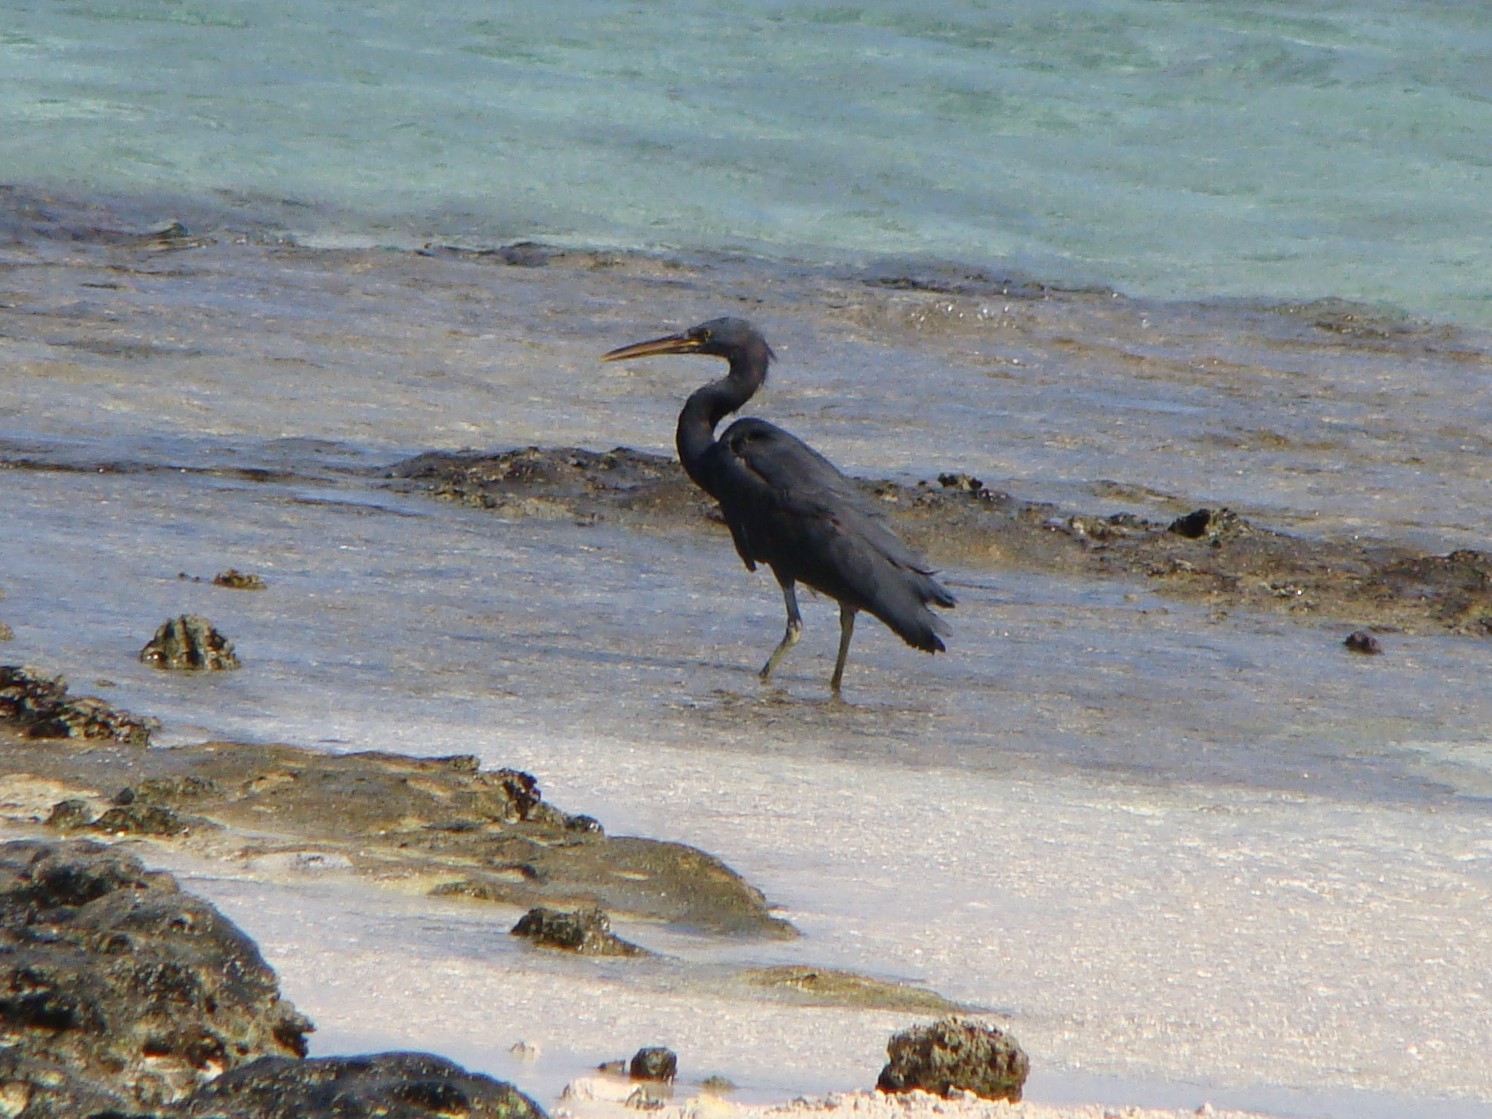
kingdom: Animalia
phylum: Chordata
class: Aves
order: Pelecaniformes
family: Ardeidae
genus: Egretta
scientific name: Egretta sacra
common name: Pacific reef heron
